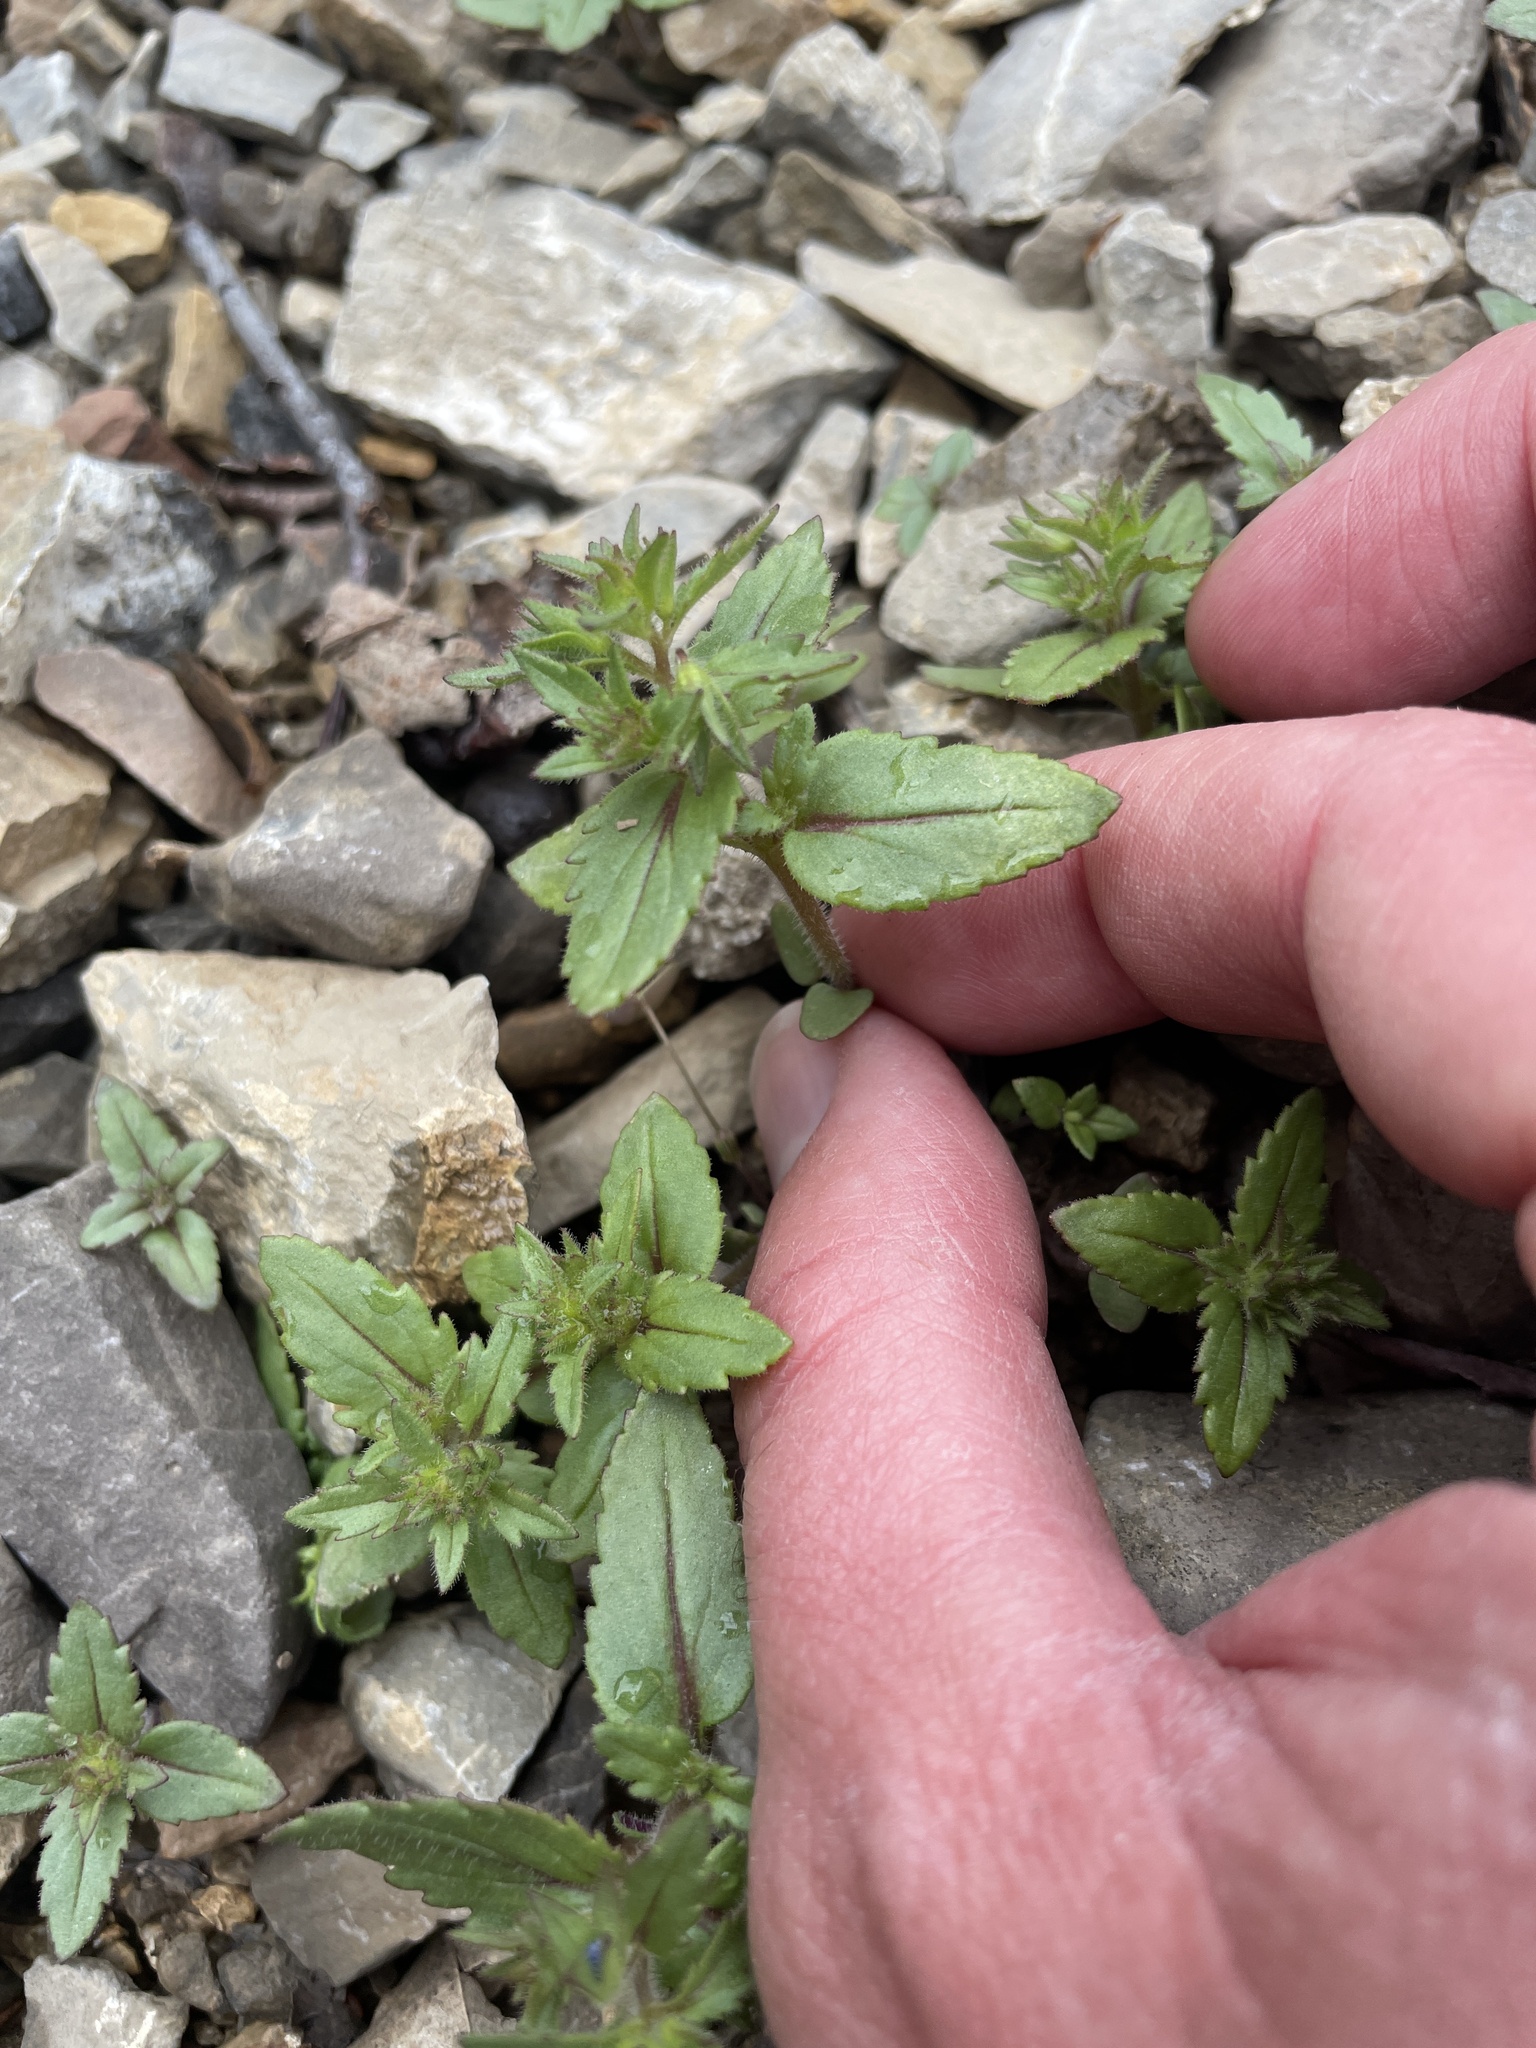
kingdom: Plantae
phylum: Tracheophyta
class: Magnoliopsida
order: Lamiales
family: Plantaginaceae
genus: Veronica
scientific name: Veronica biloba
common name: Twolobe speedwell
